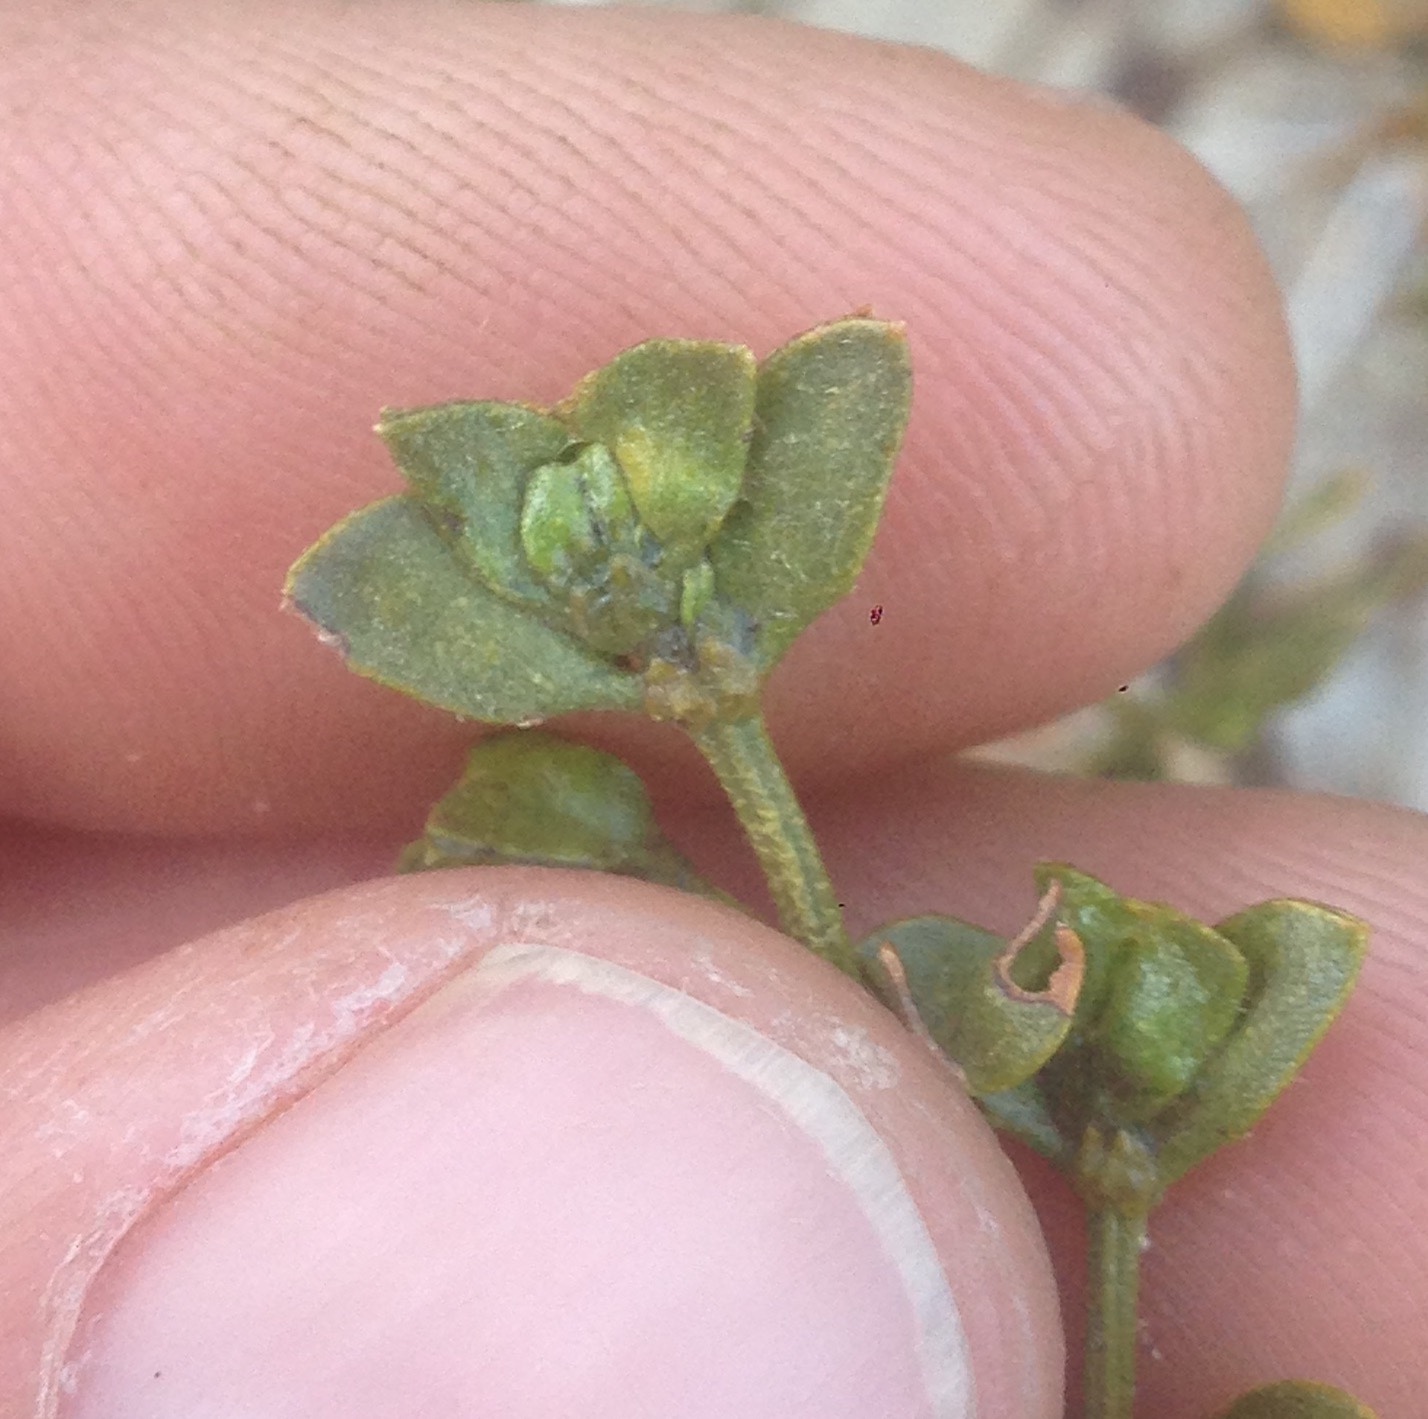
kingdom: Plantae
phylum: Tracheophyta
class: Magnoliopsida
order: Zygophyllales
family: Zygophyllaceae
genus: Larrea
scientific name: Larrea tridentata
